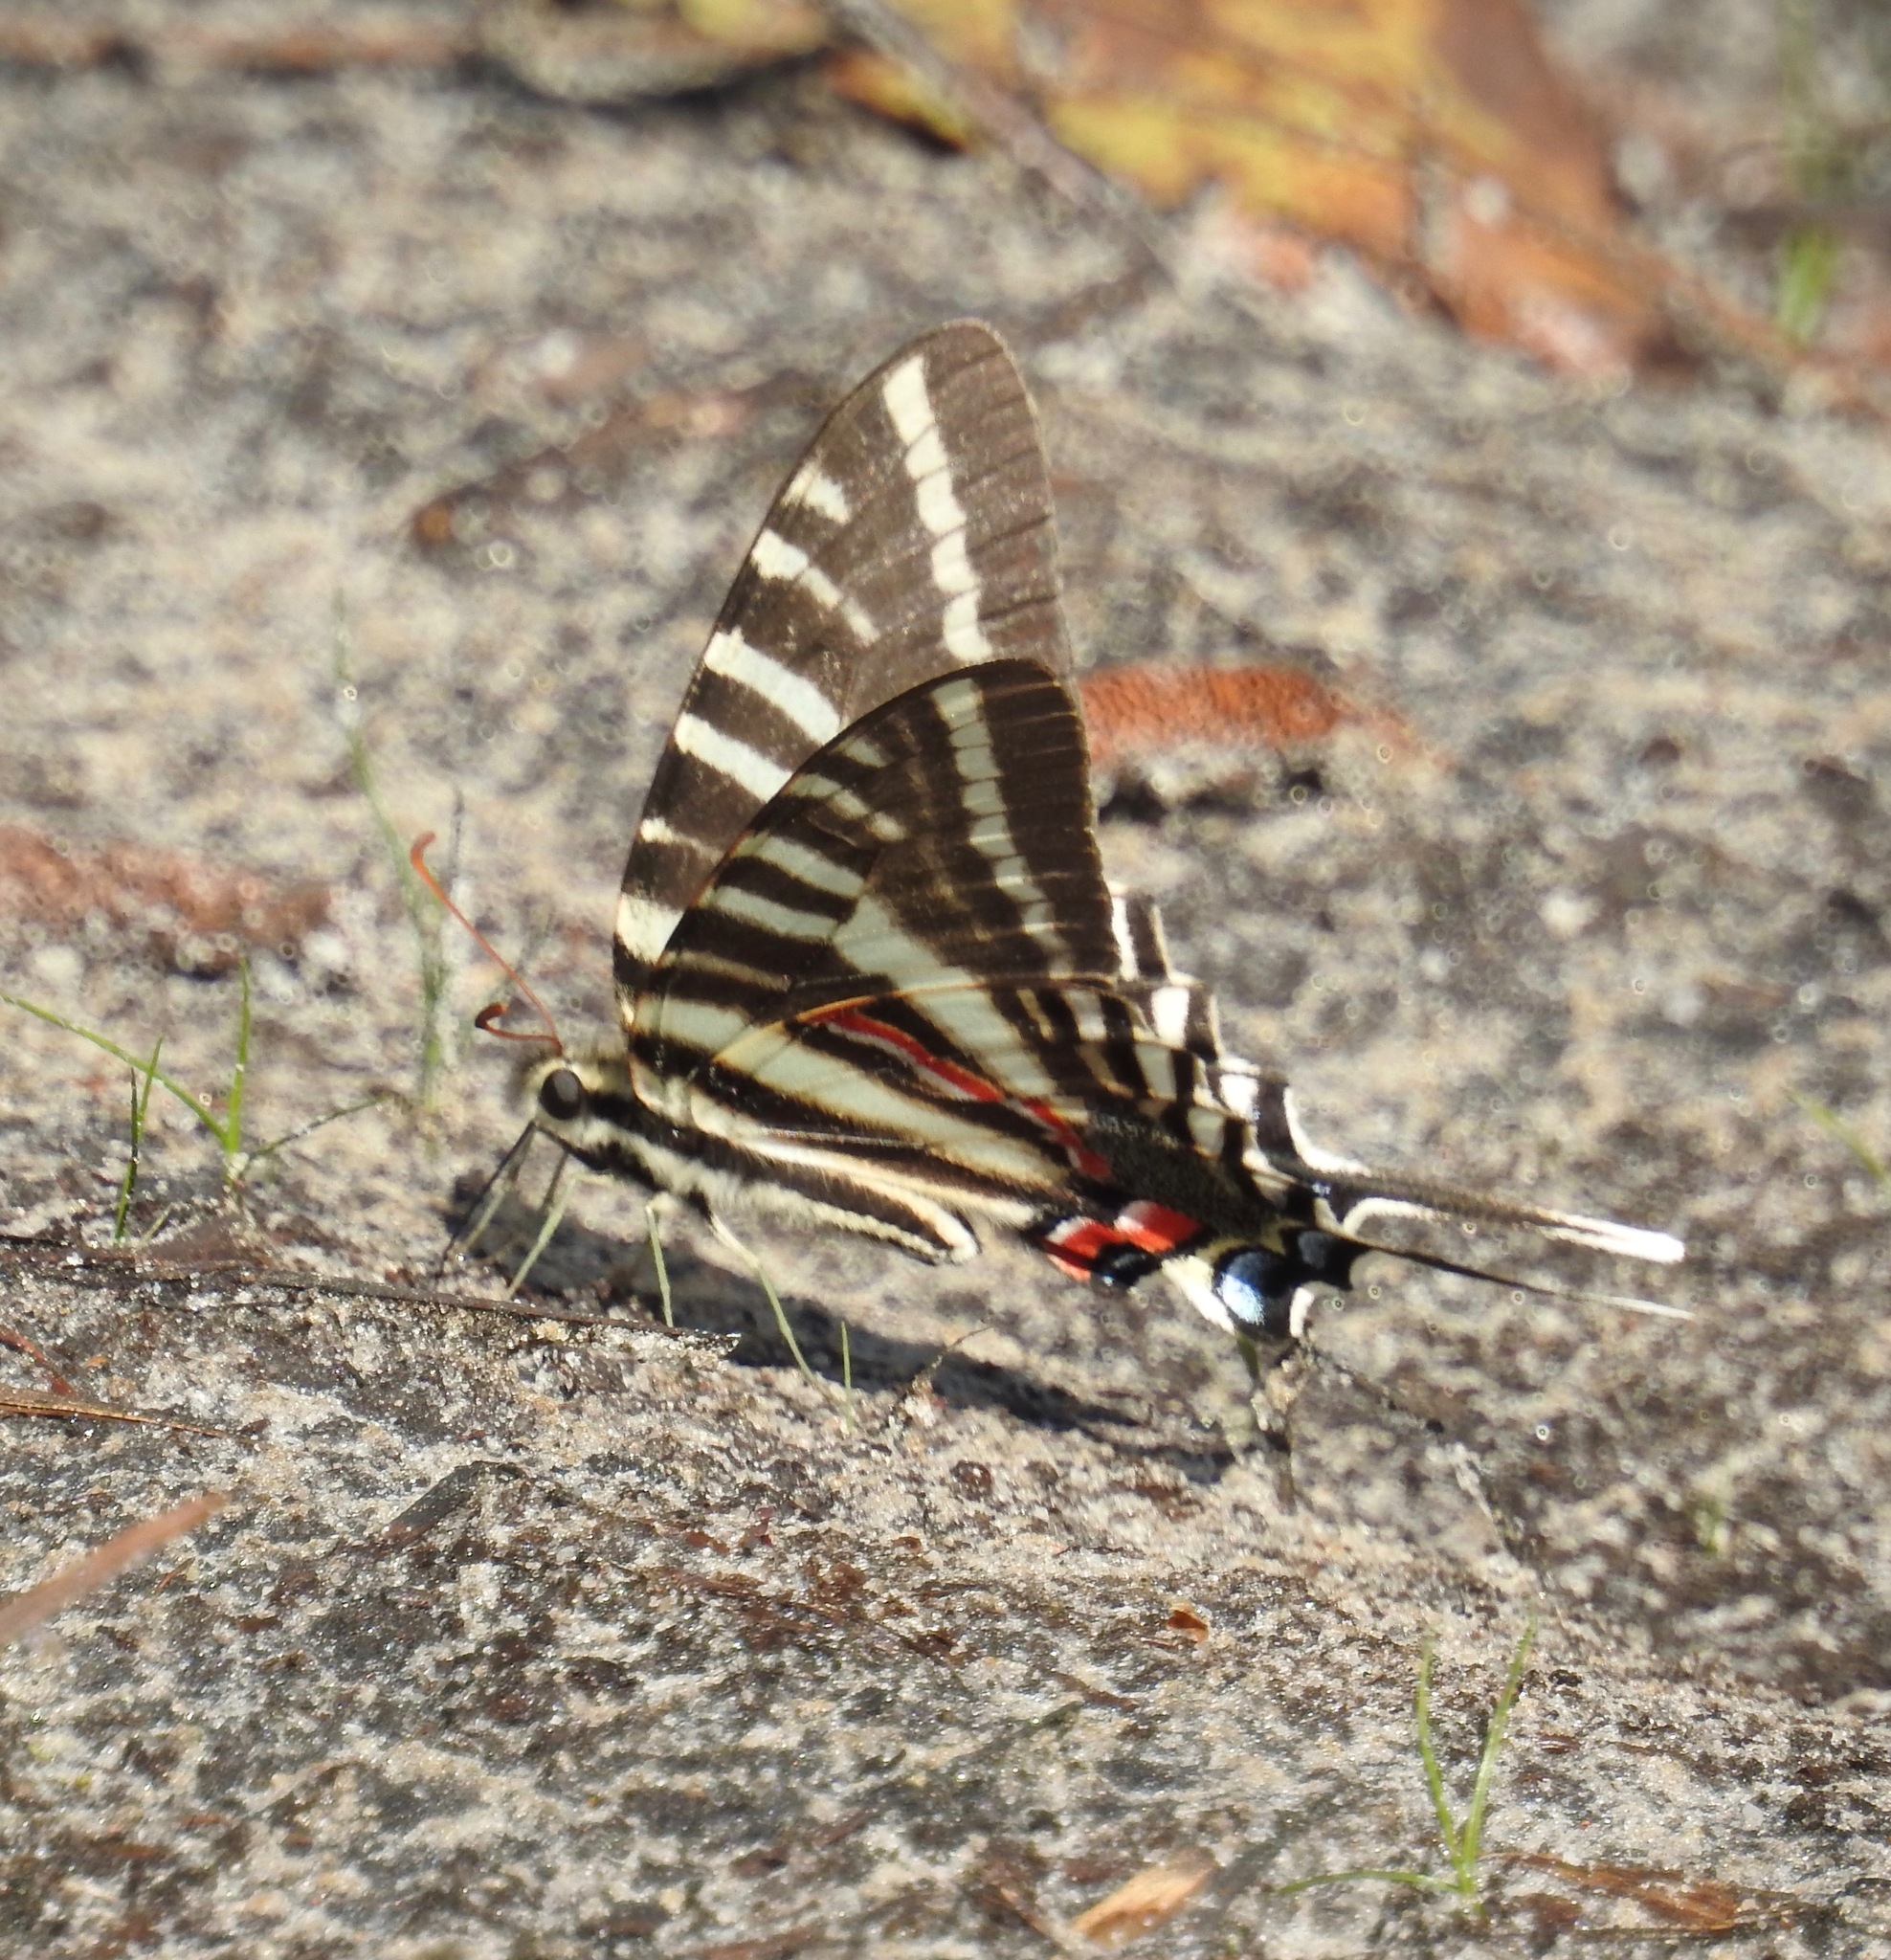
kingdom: Animalia
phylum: Arthropoda
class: Insecta
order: Lepidoptera
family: Papilionidae
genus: Protographium
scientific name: Protographium marcellus
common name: Zebra swallowtail
